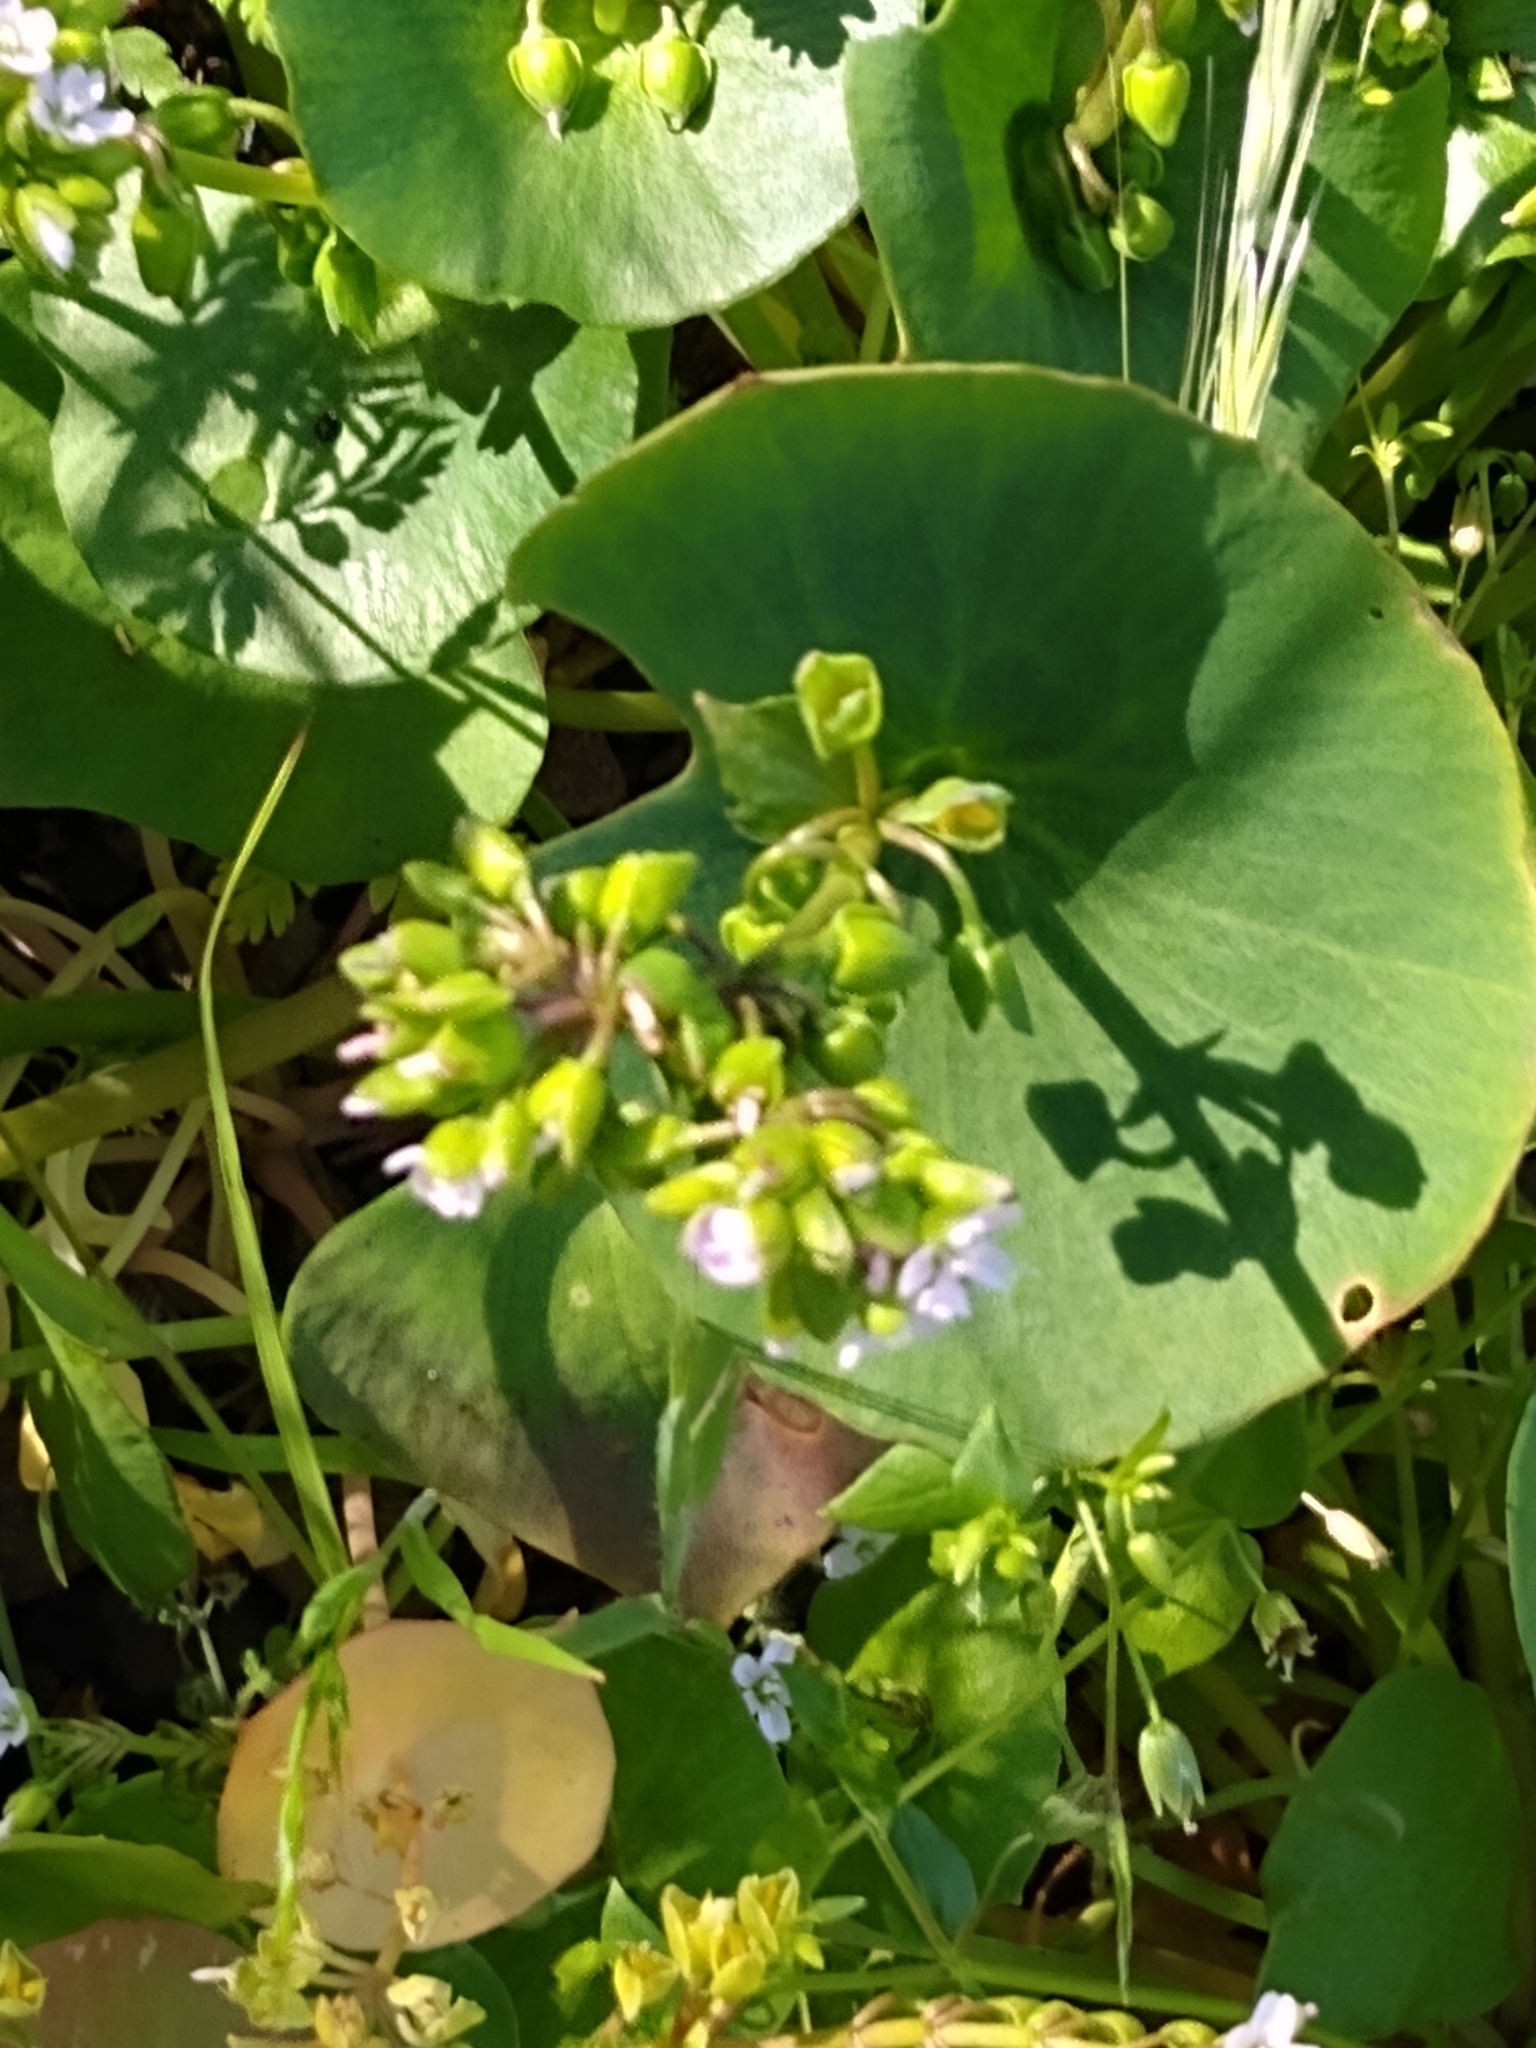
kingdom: Plantae
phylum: Tracheophyta
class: Magnoliopsida
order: Caryophyllales
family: Montiaceae
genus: Claytonia
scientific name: Claytonia perfoliata
